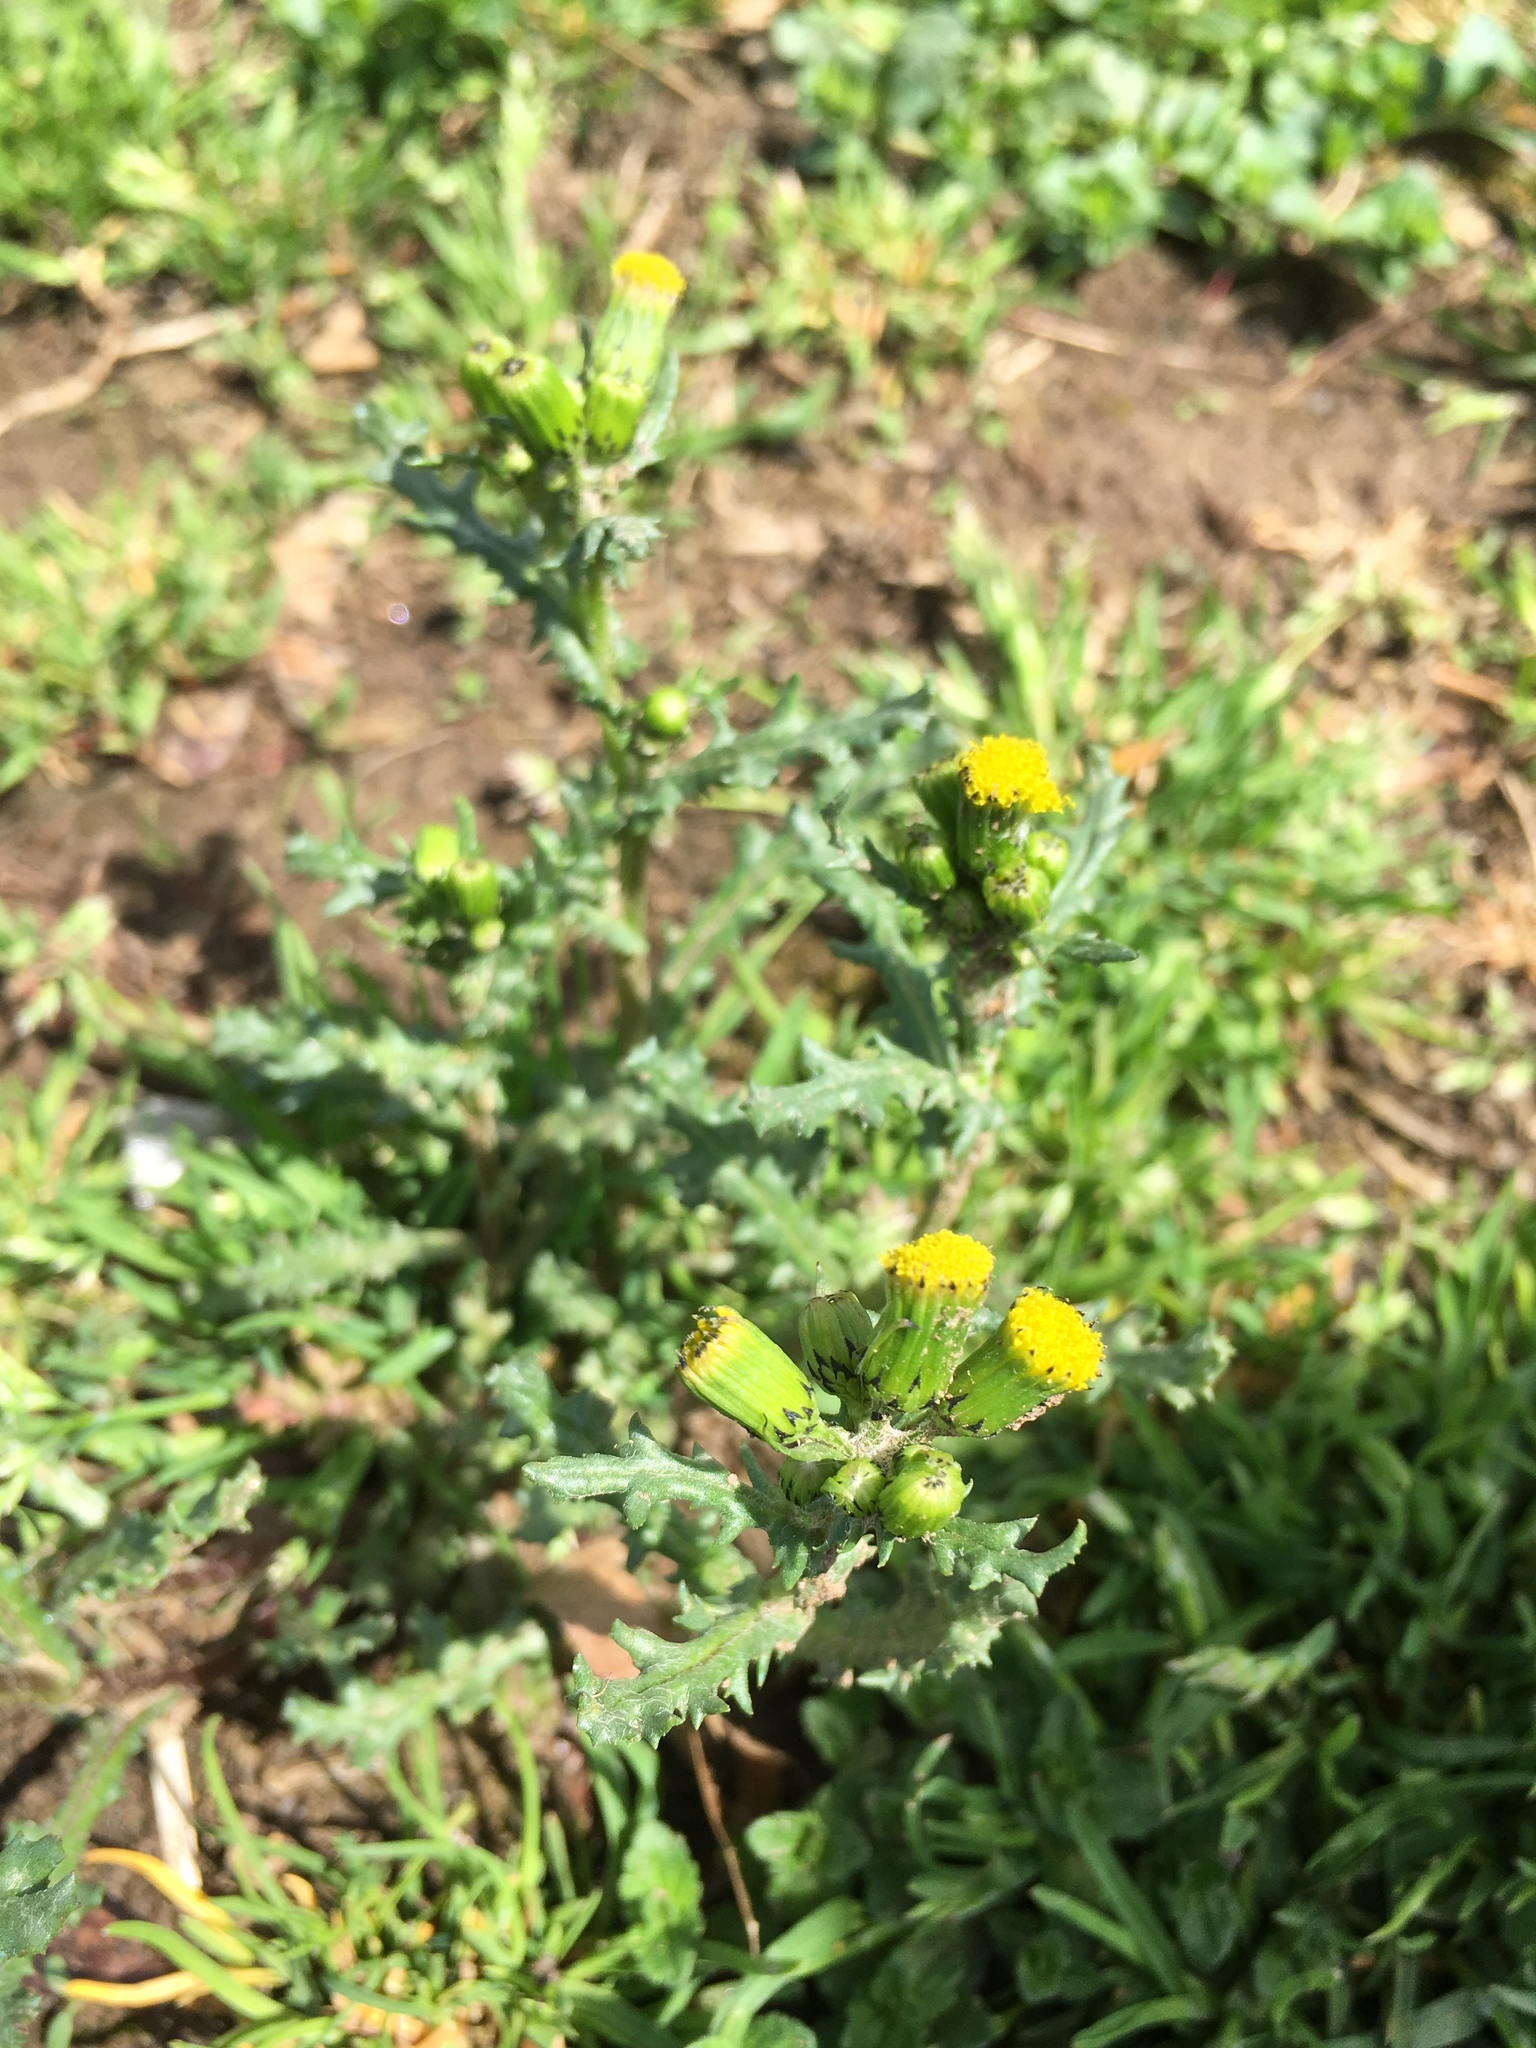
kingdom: Plantae
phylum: Tracheophyta
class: Magnoliopsida
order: Asterales
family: Asteraceae
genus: Senecio
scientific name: Senecio vulgaris
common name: Old-man-in-the-spring
